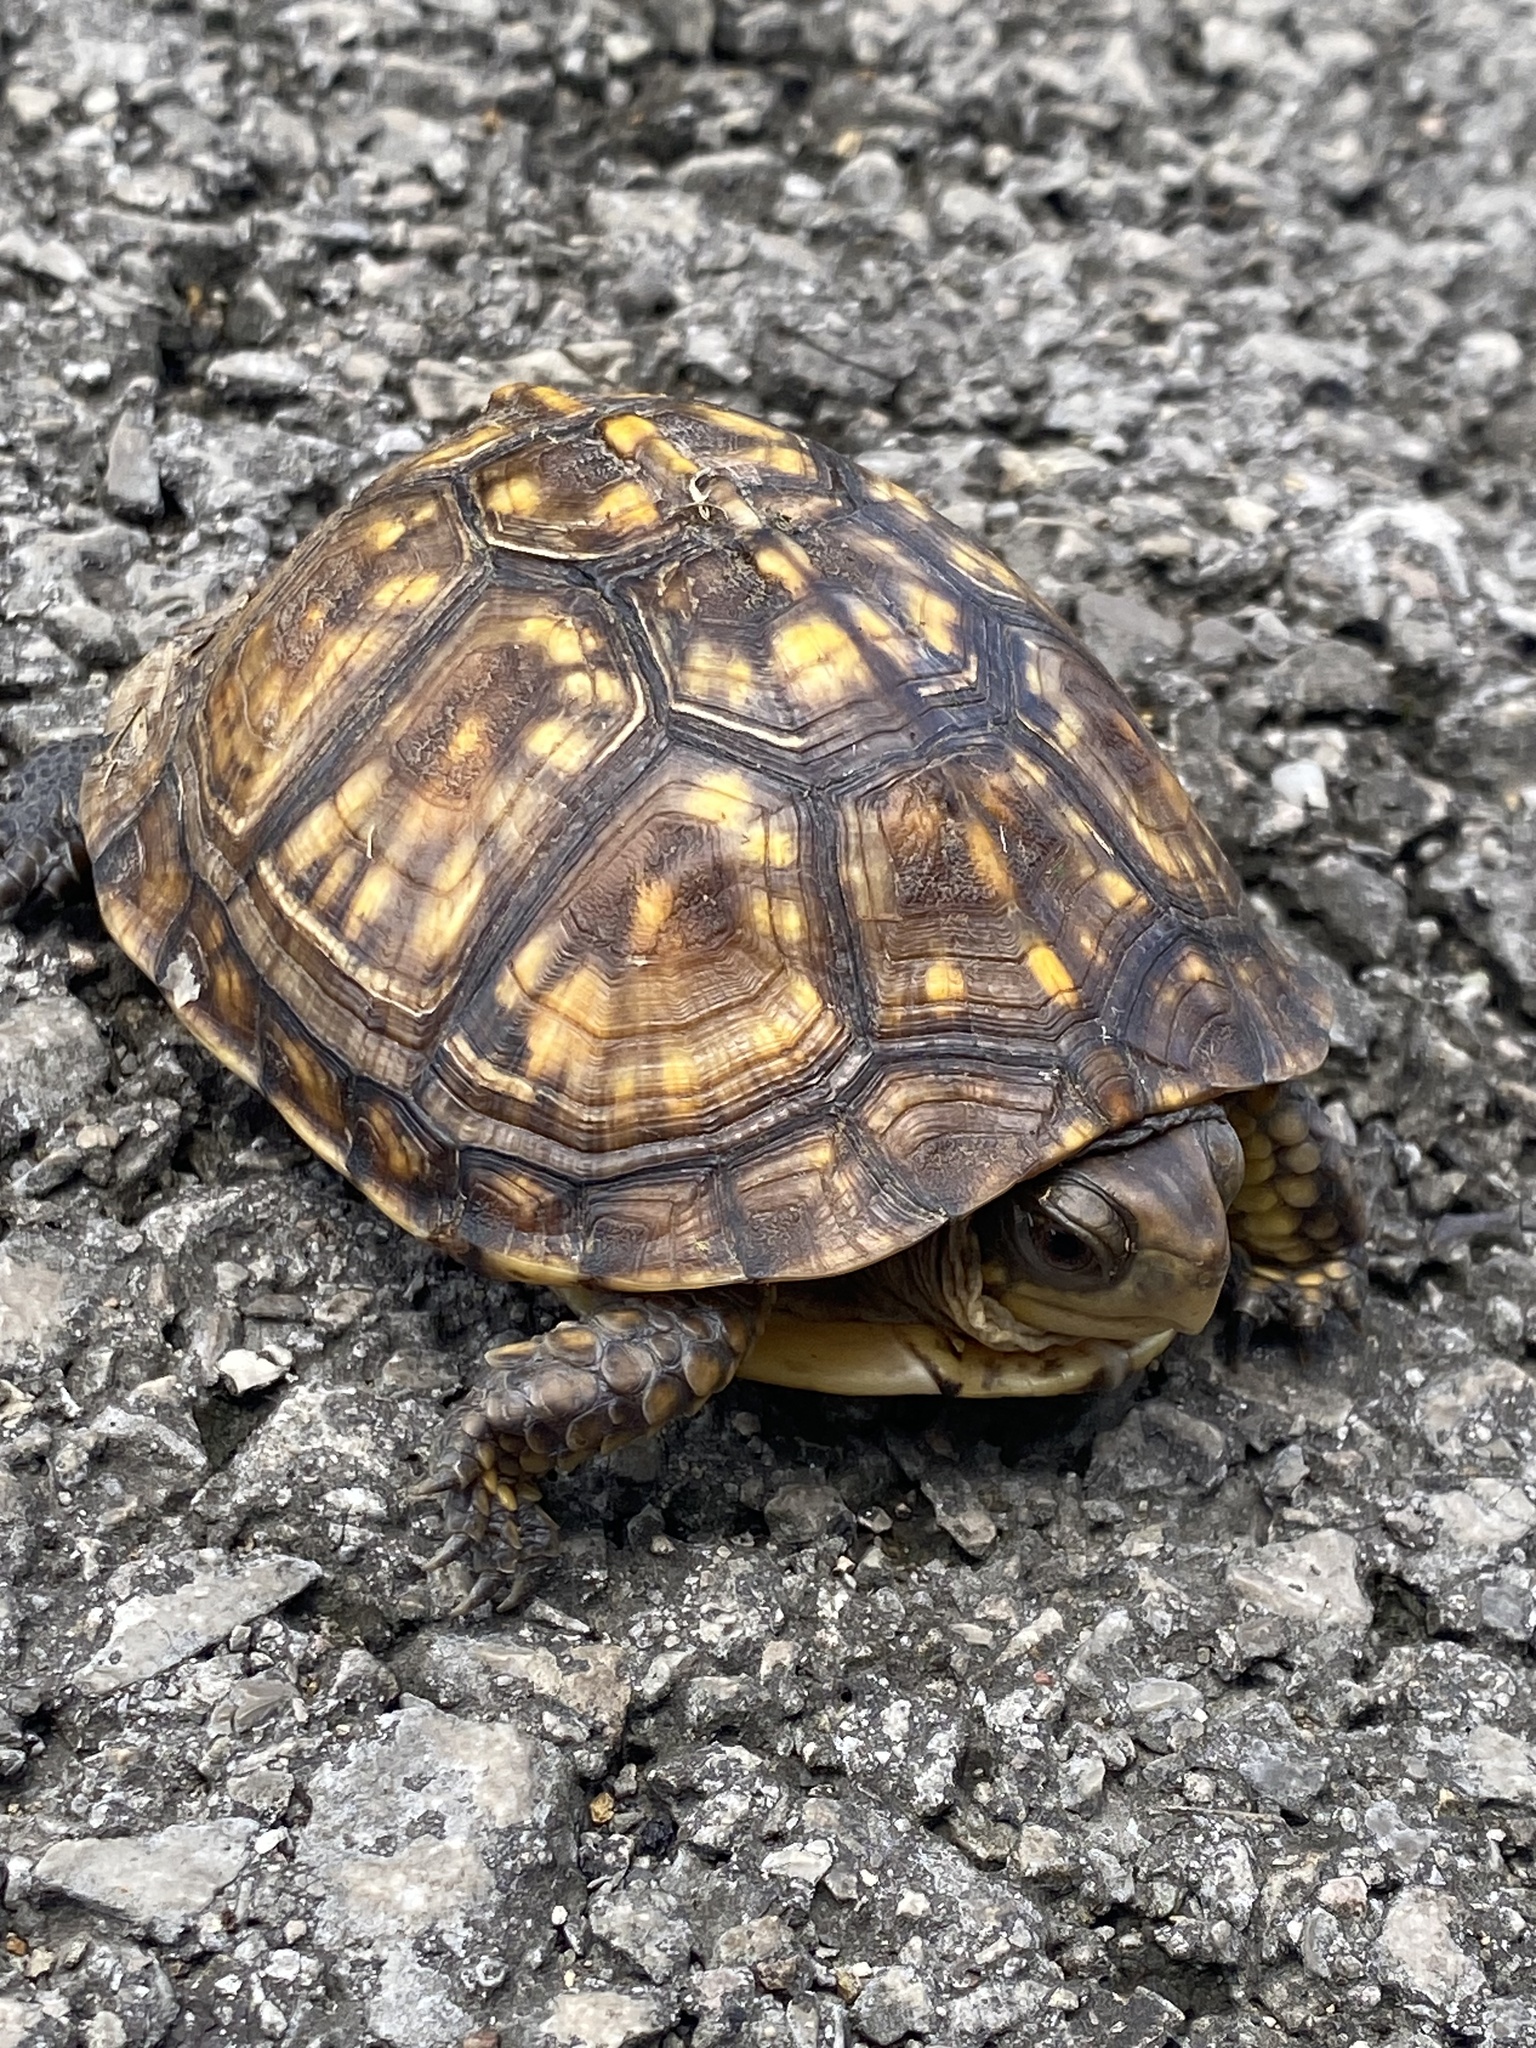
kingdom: Animalia
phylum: Chordata
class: Testudines
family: Emydidae
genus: Terrapene
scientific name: Terrapene carolina
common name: Common box turtle
